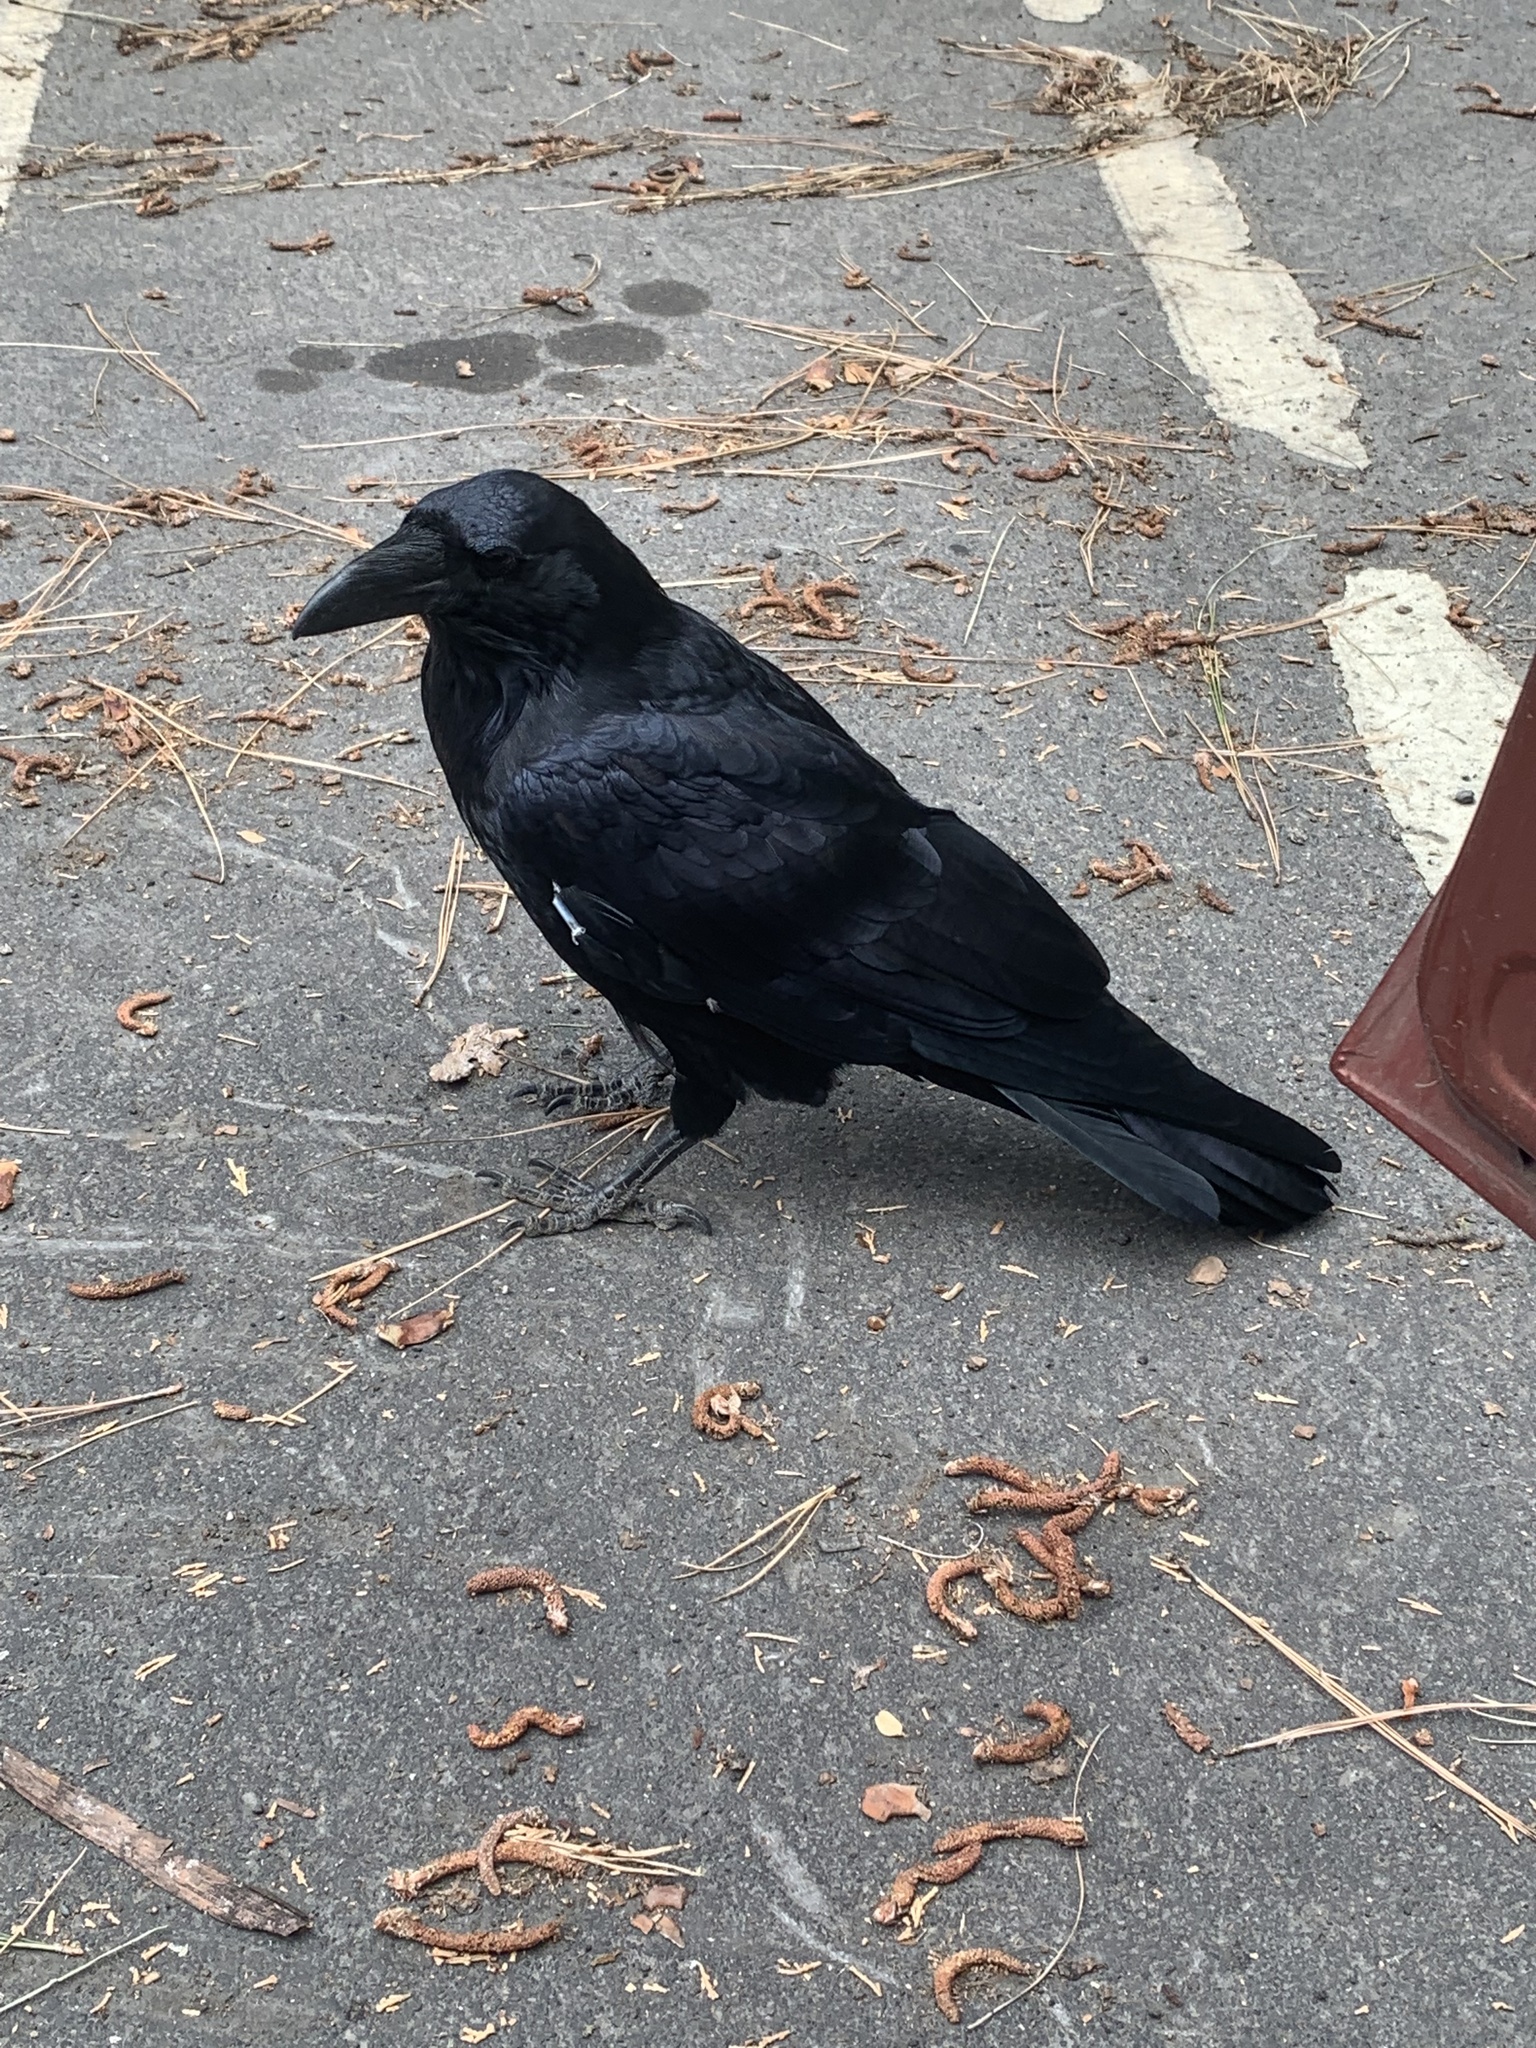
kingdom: Animalia
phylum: Chordata
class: Aves
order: Passeriformes
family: Corvidae
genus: Corvus
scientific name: Corvus corax
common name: Common raven
